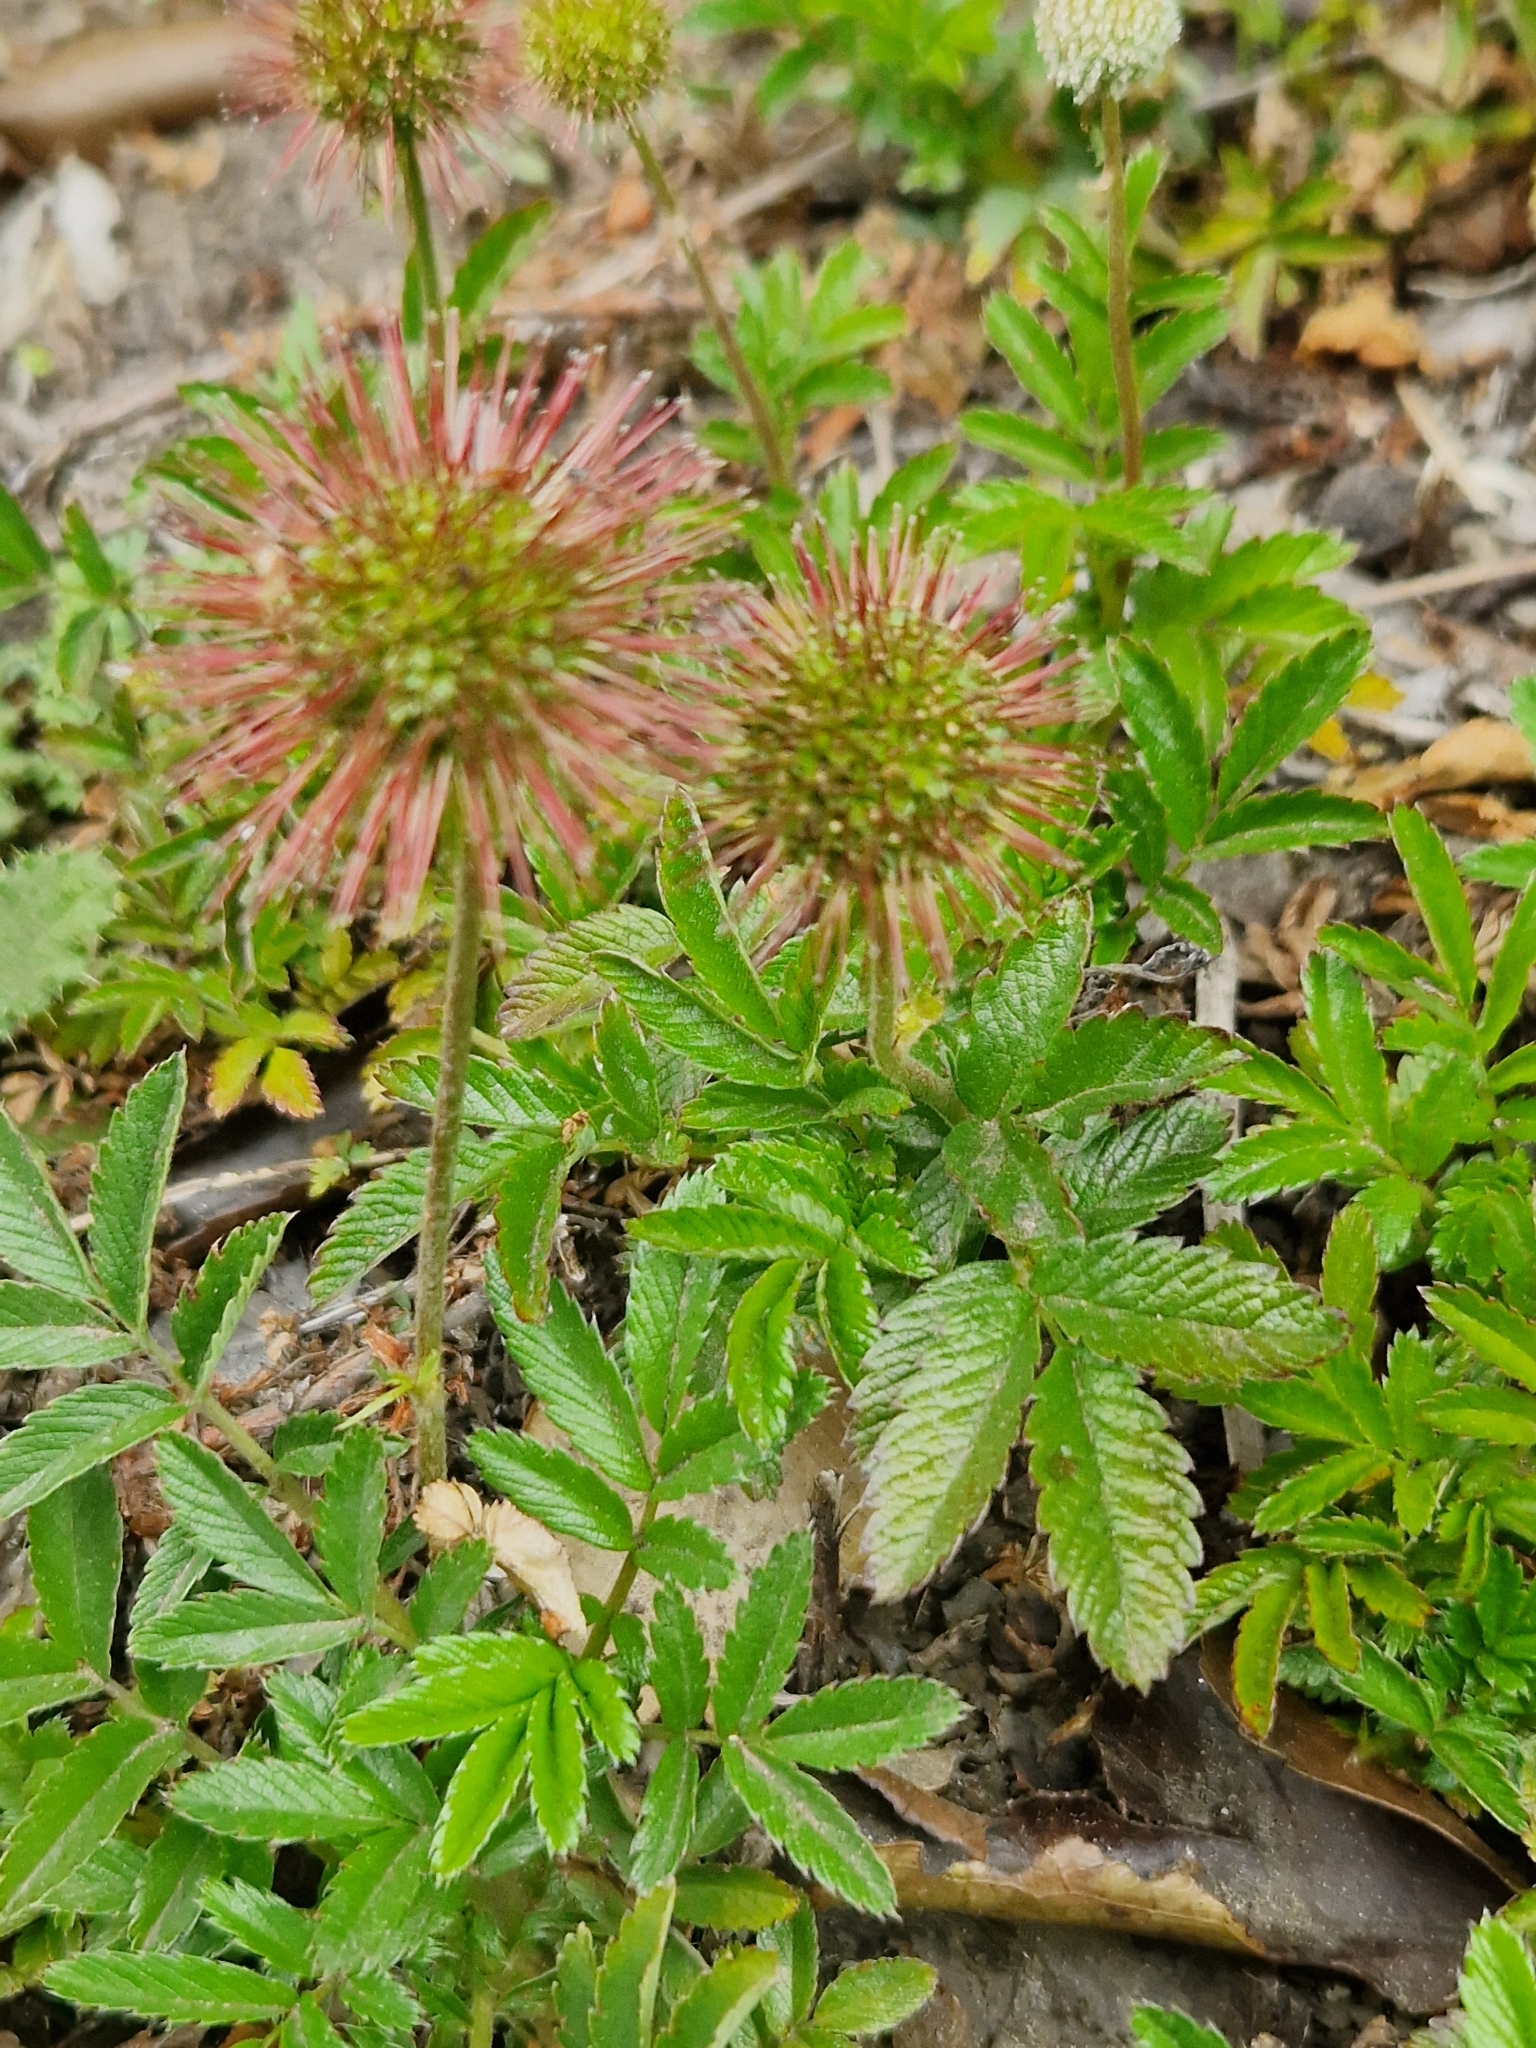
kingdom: Plantae
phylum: Tracheophyta
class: Magnoliopsida
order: Rosales
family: Rosaceae
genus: Acaena
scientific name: Acaena ovalifolia
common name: Two-spined acaena
